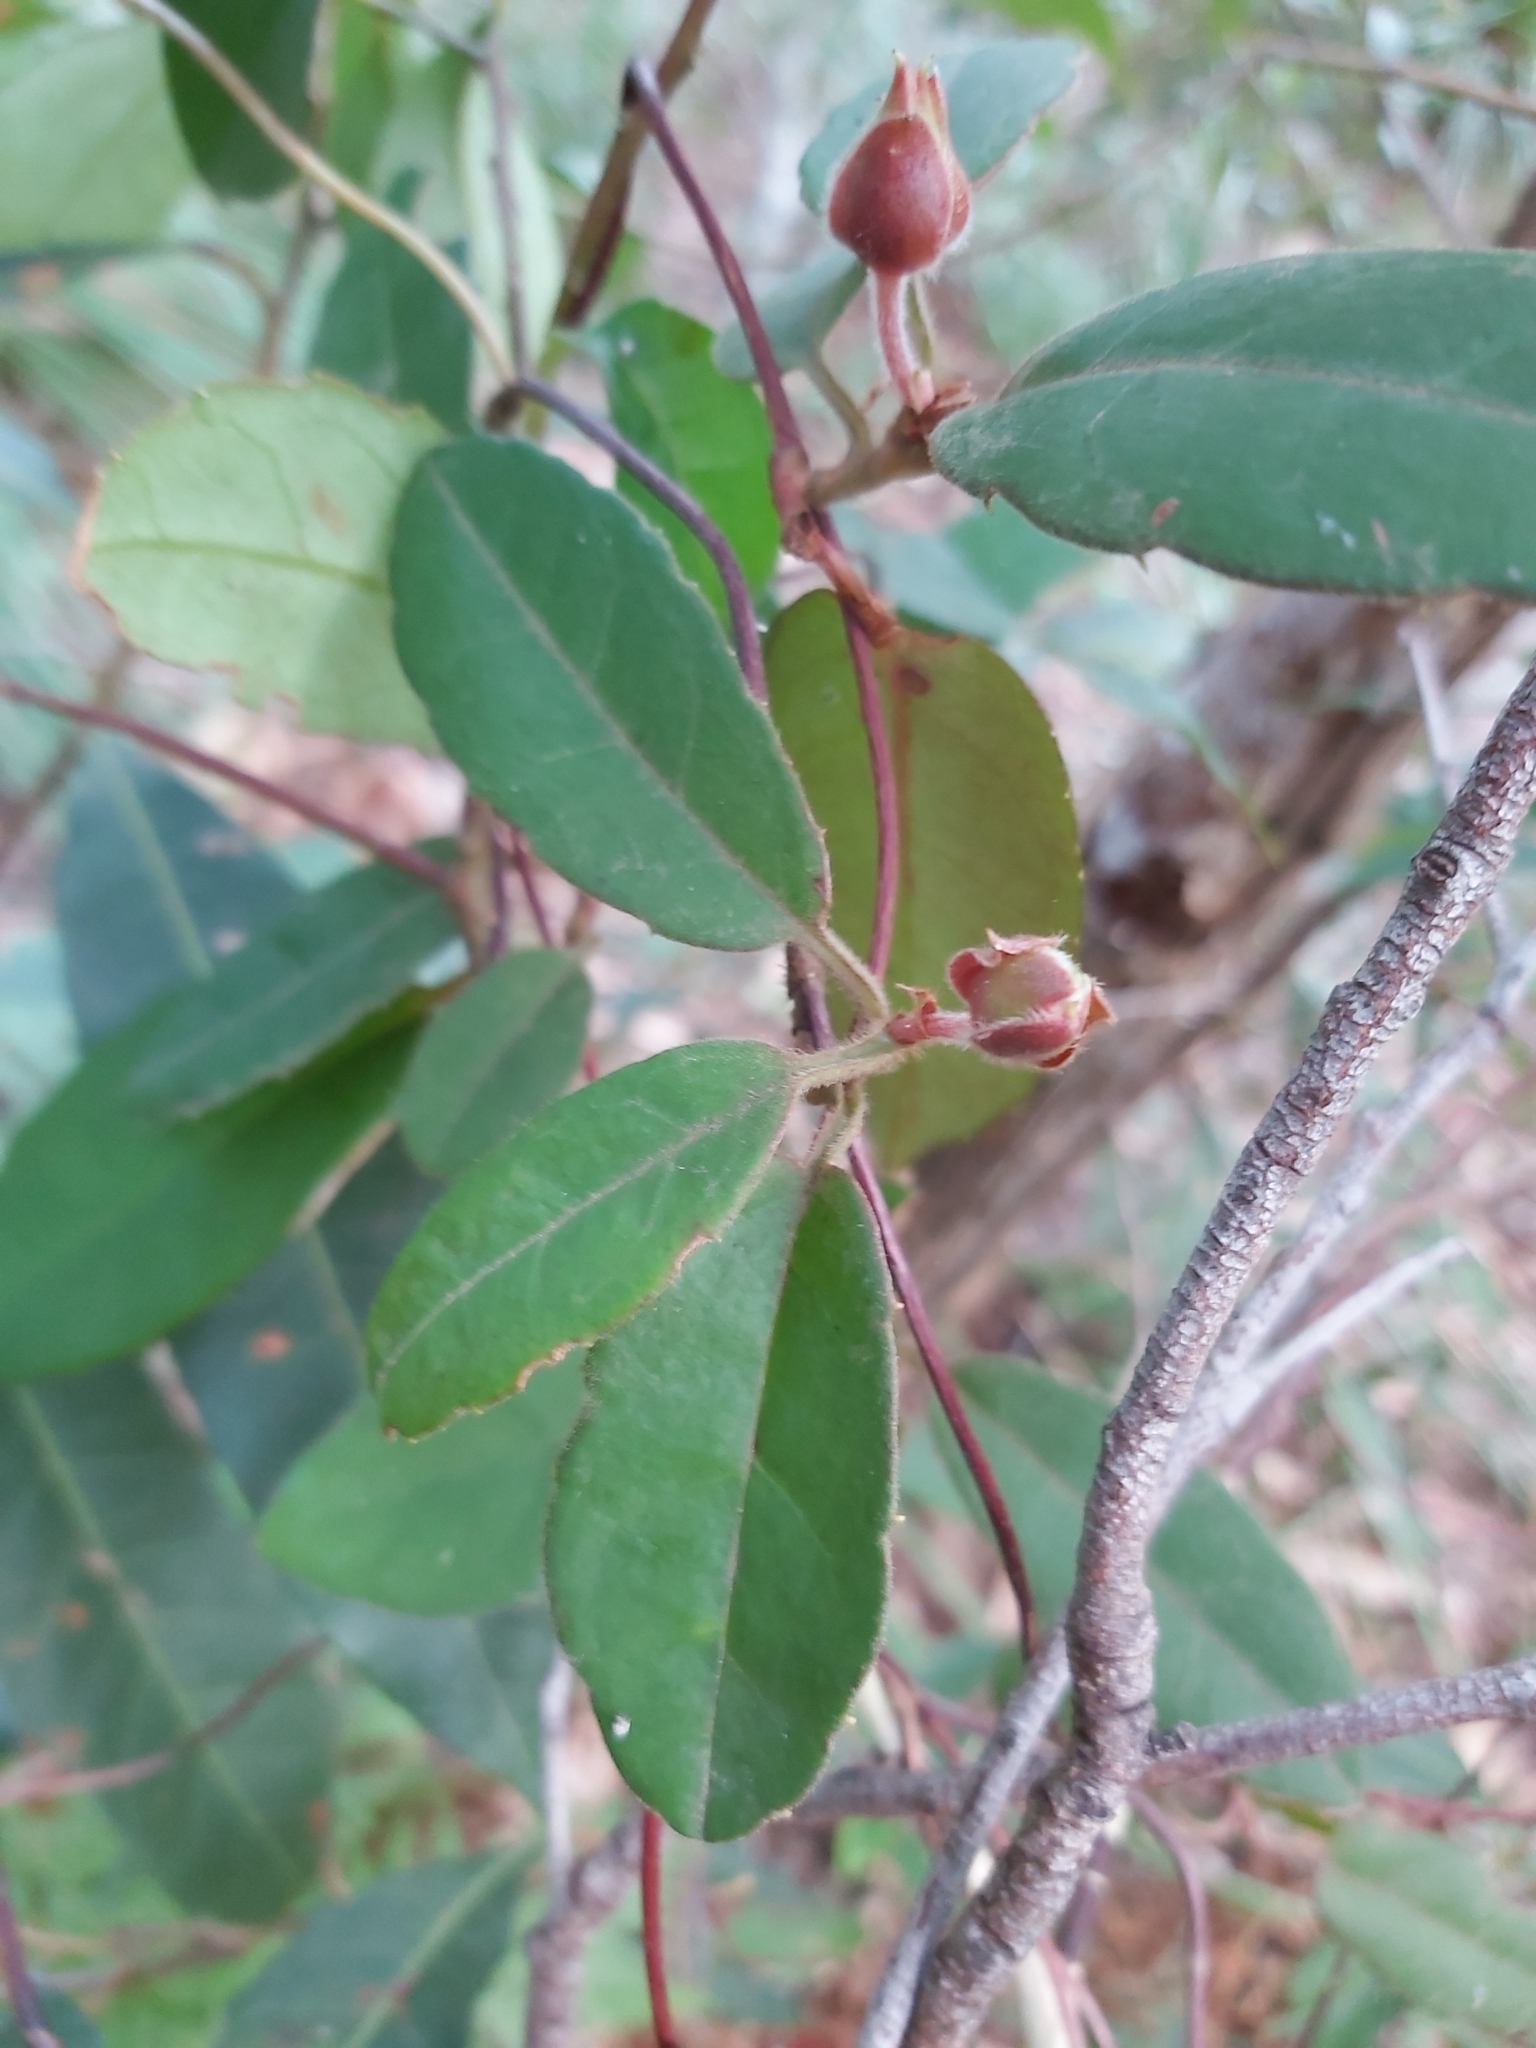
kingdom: Plantae
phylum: Tracheophyta
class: Magnoliopsida
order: Dilleniales
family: Dilleniaceae
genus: Hibbertia
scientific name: Hibbertia dentata
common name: Trailing guinea-flower
